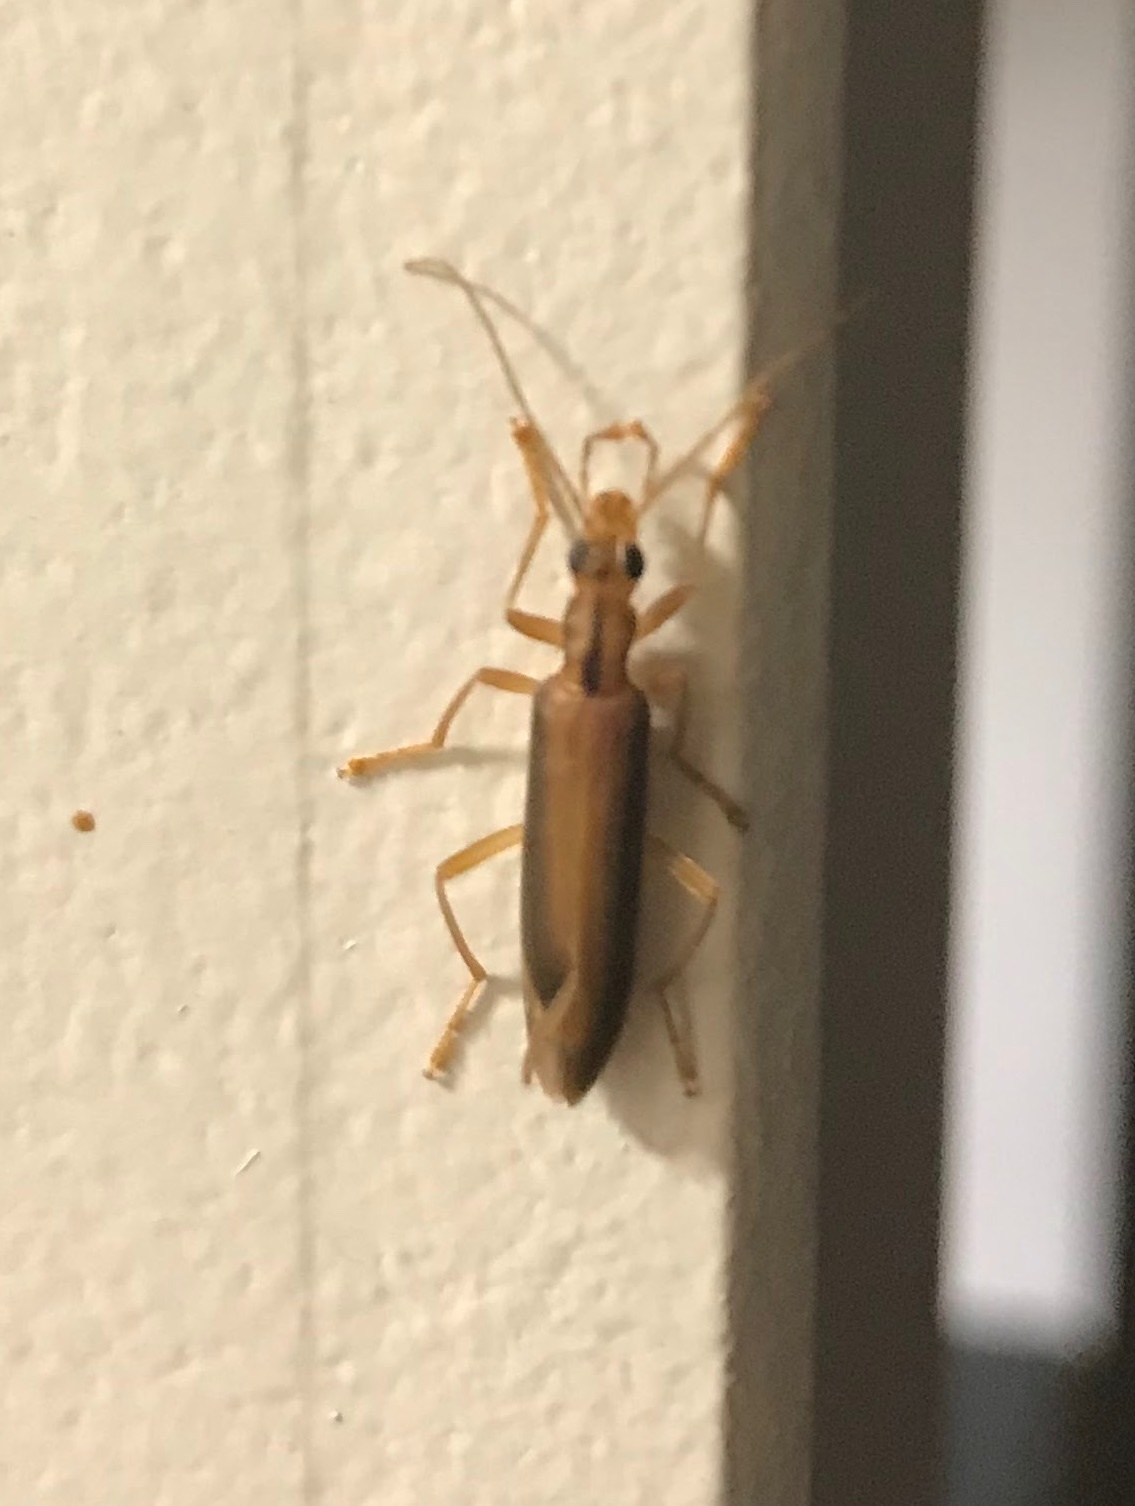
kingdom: Animalia
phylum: Arthropoda
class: Insecta
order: Coleoptera
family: Oedemeridae
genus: Thelyphassa
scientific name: Thelyphassa
